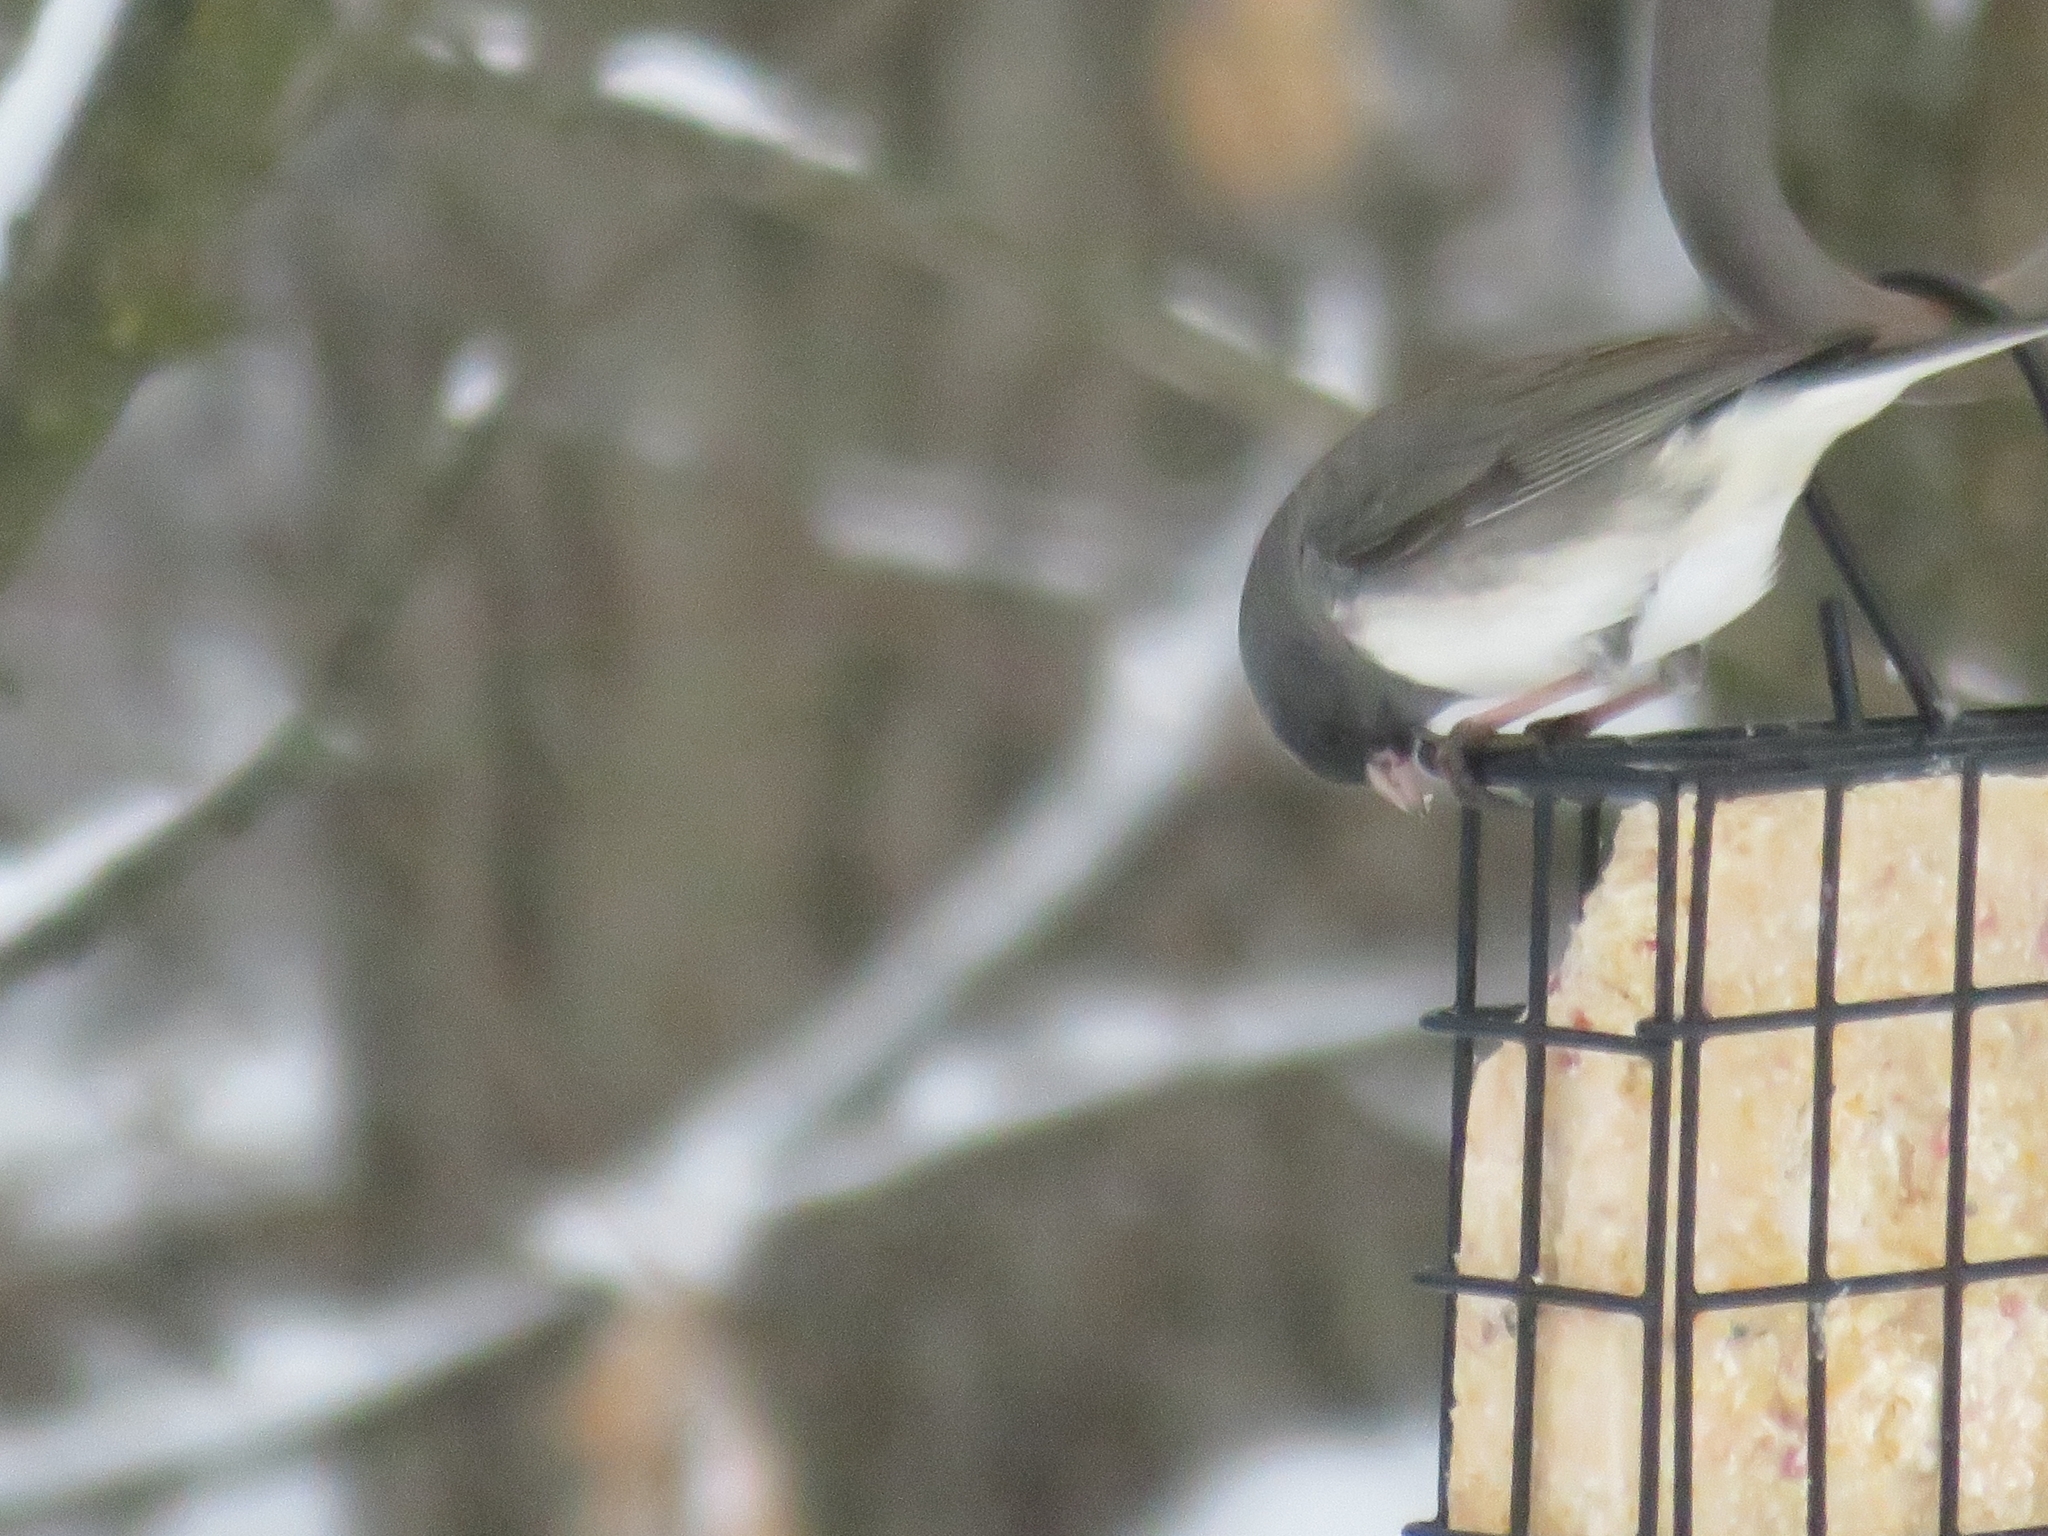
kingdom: Animalia
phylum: Chordata
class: Aves
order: Passeriformes
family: Passerellidae
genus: Junco
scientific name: Junco hyemalis
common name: Dark-eyed junco
